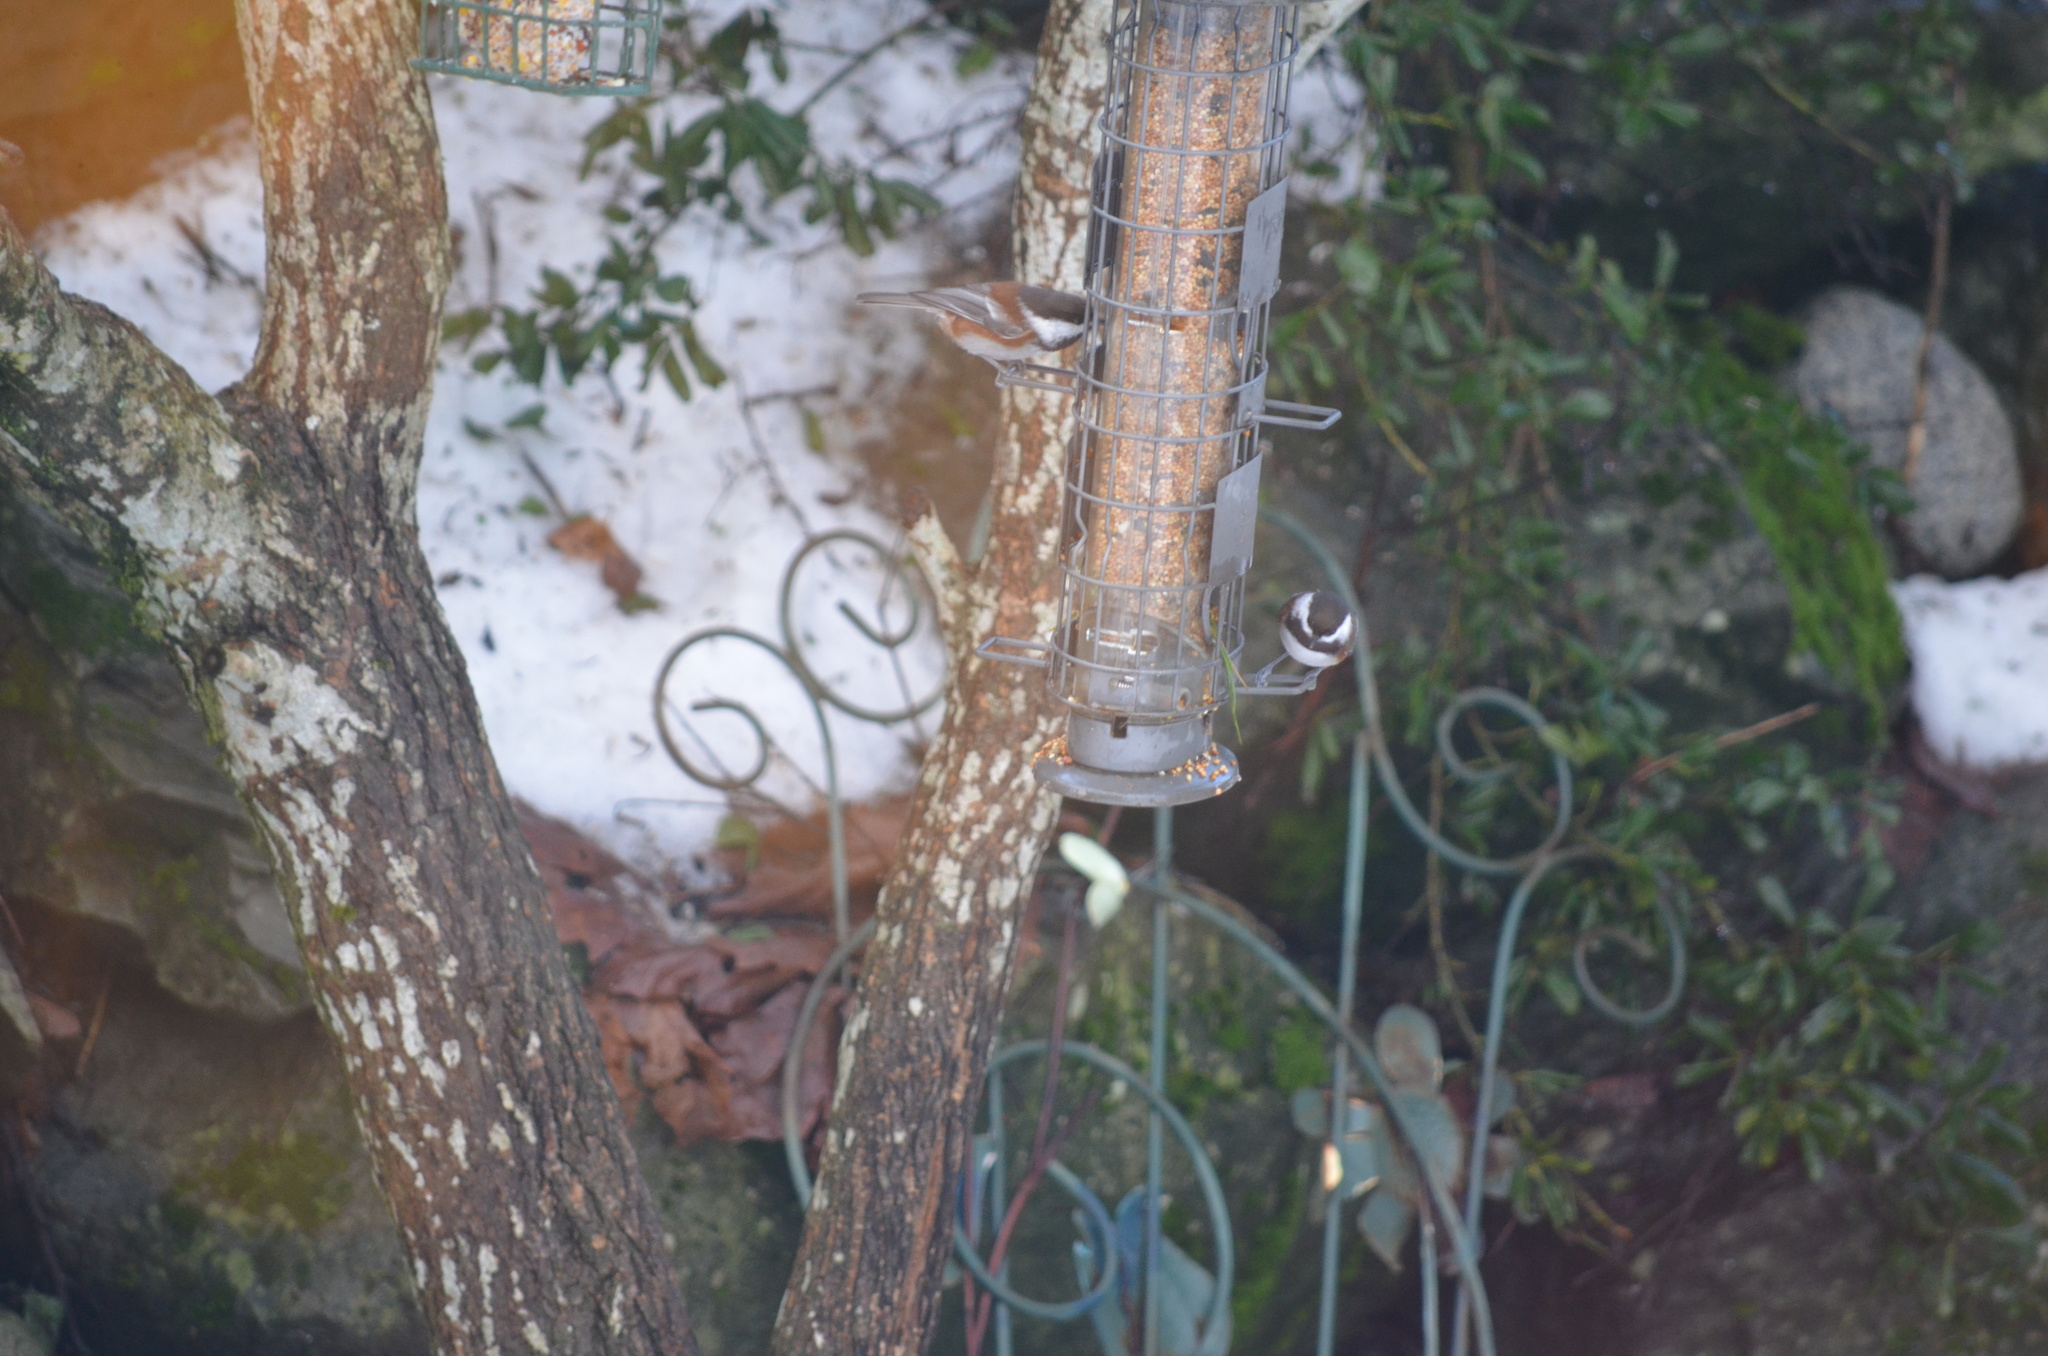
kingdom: Animalia
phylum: Chordata
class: Aves
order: Passeriformes
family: Paridae
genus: Poecile
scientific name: Poecile rufescens
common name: Chestnut-backed chickadee
